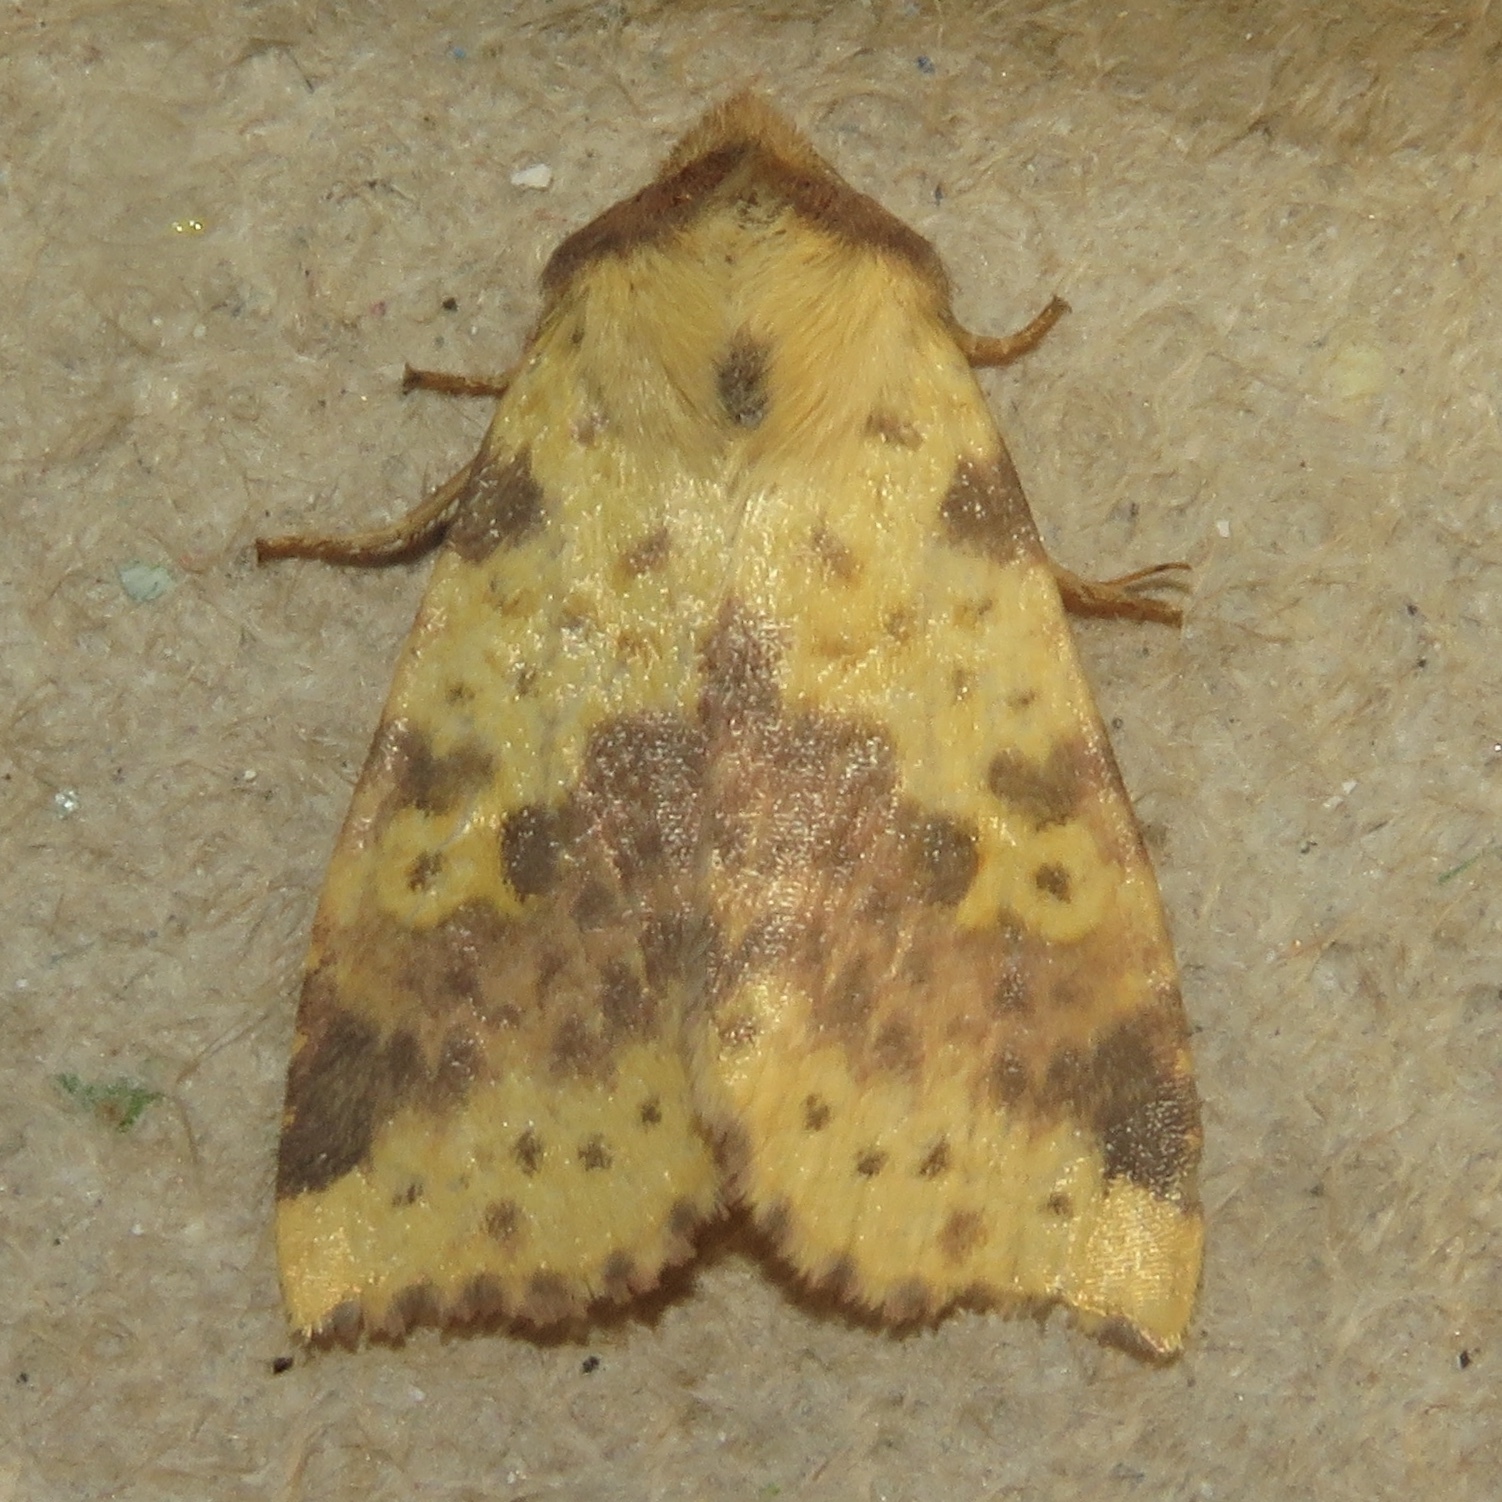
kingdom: Animalia
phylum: Arthropoda
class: Insecta
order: Lepidoptera
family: Noctuidae
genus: Xanthia
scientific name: Xanthia tatago
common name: Pink-banded sallow
